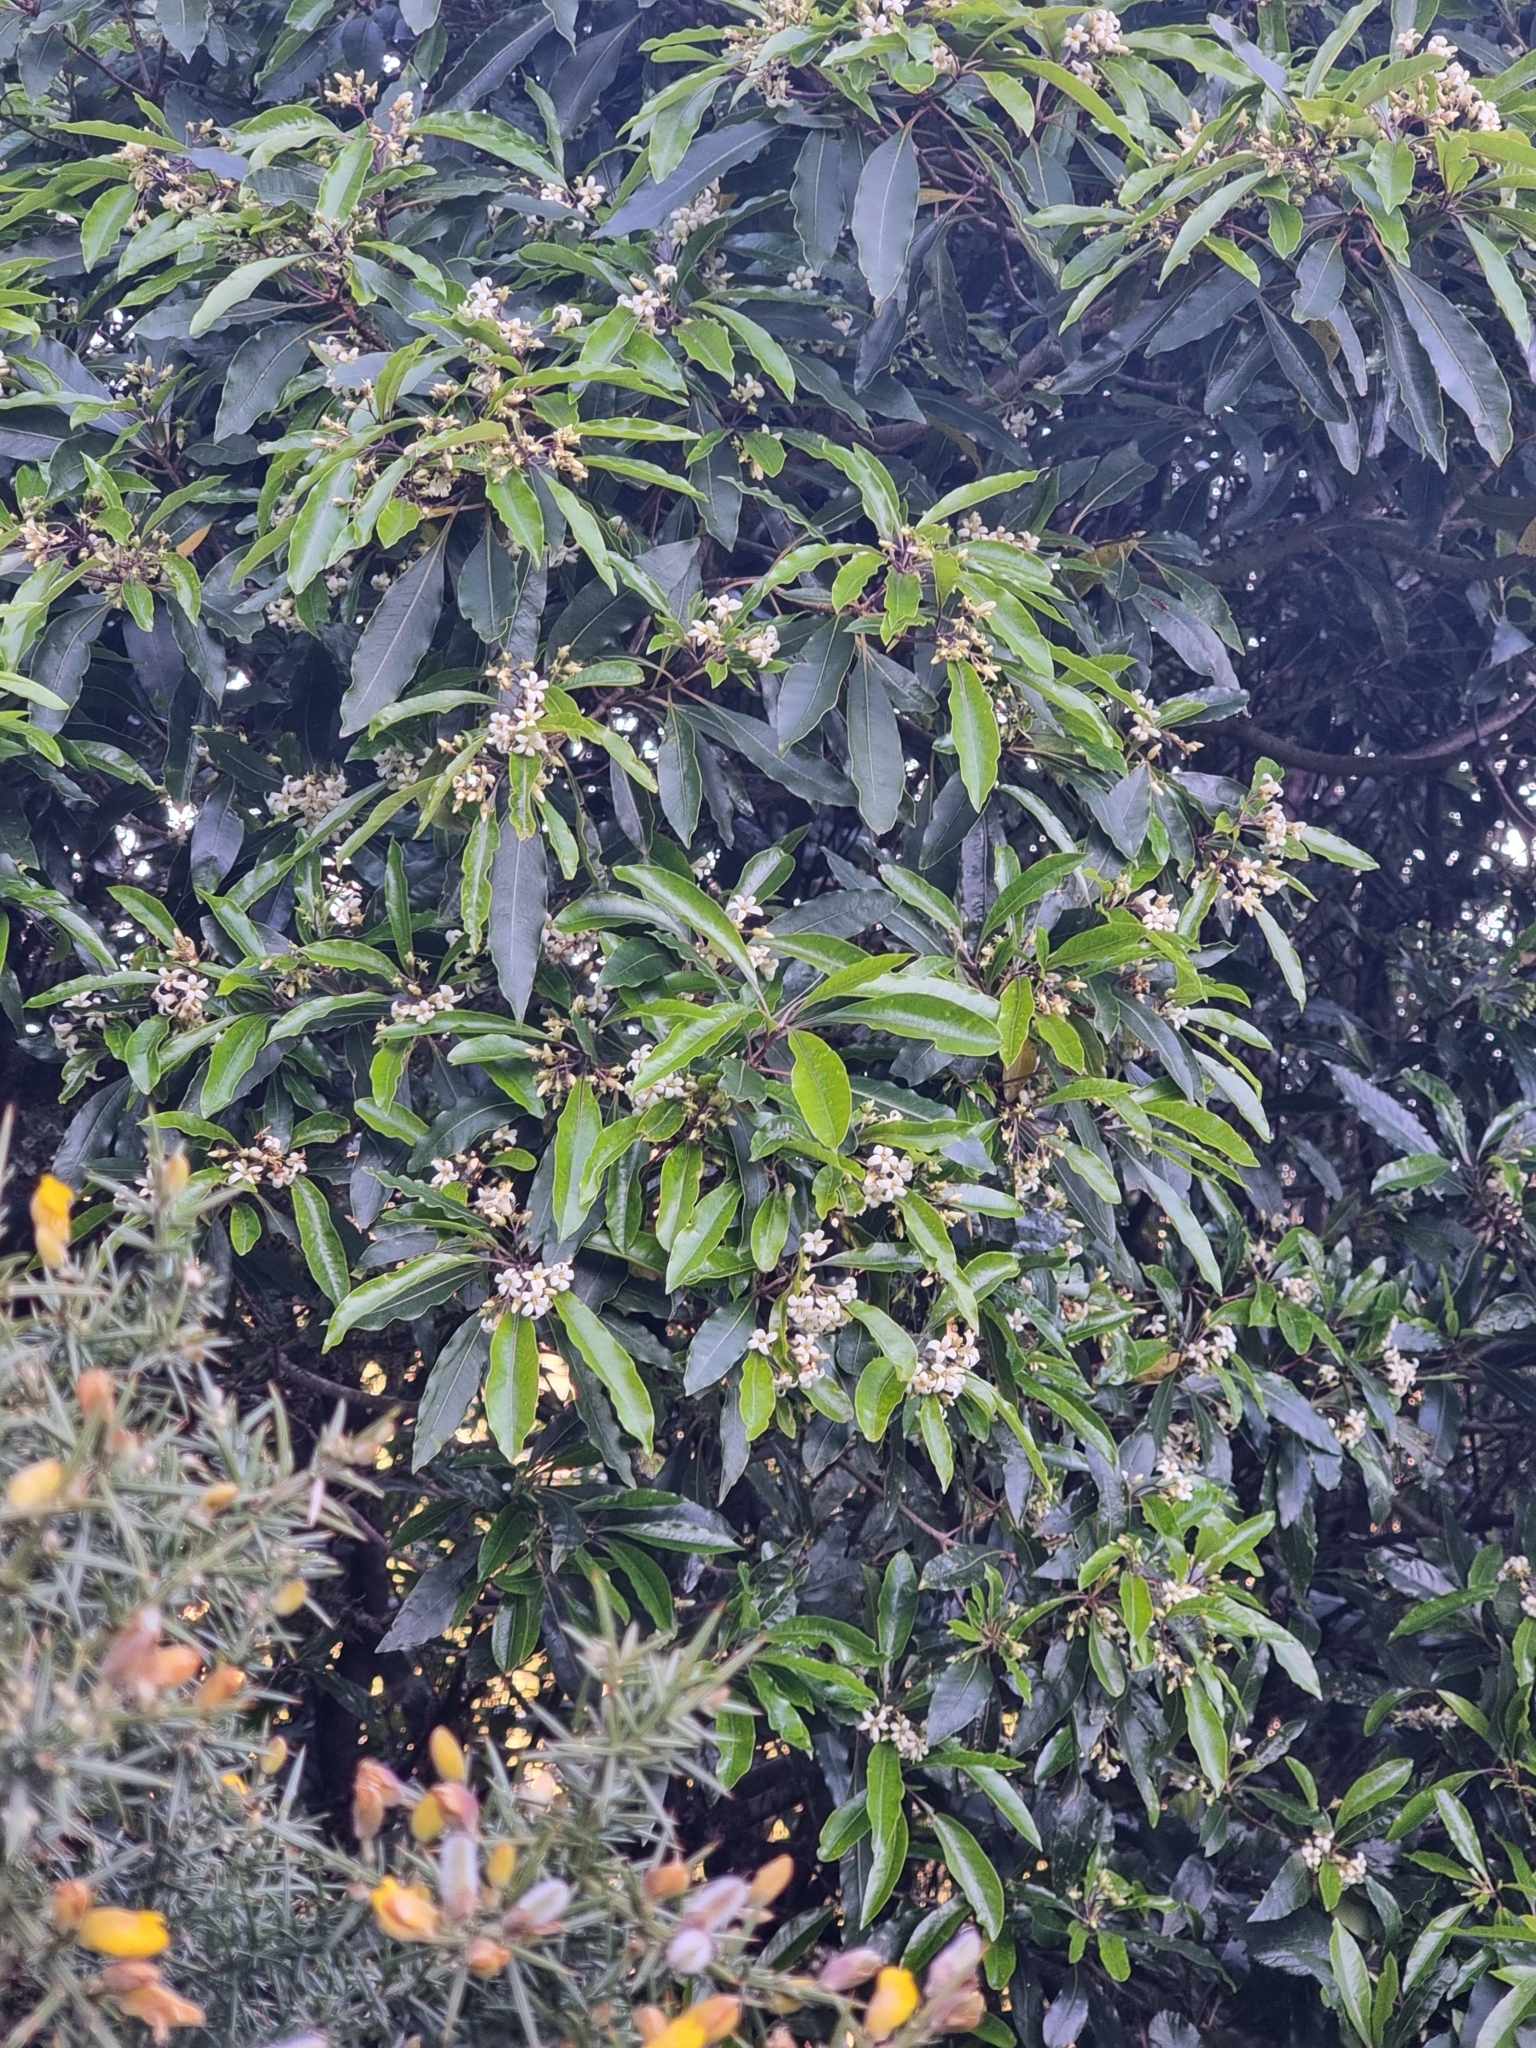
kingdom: Plantae
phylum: Tracheophyta
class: Magnoliopsida
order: Apiales
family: Pittosporaceae
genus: Pittosporum
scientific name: Pittosporum undulatum
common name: Australian cheesewood
